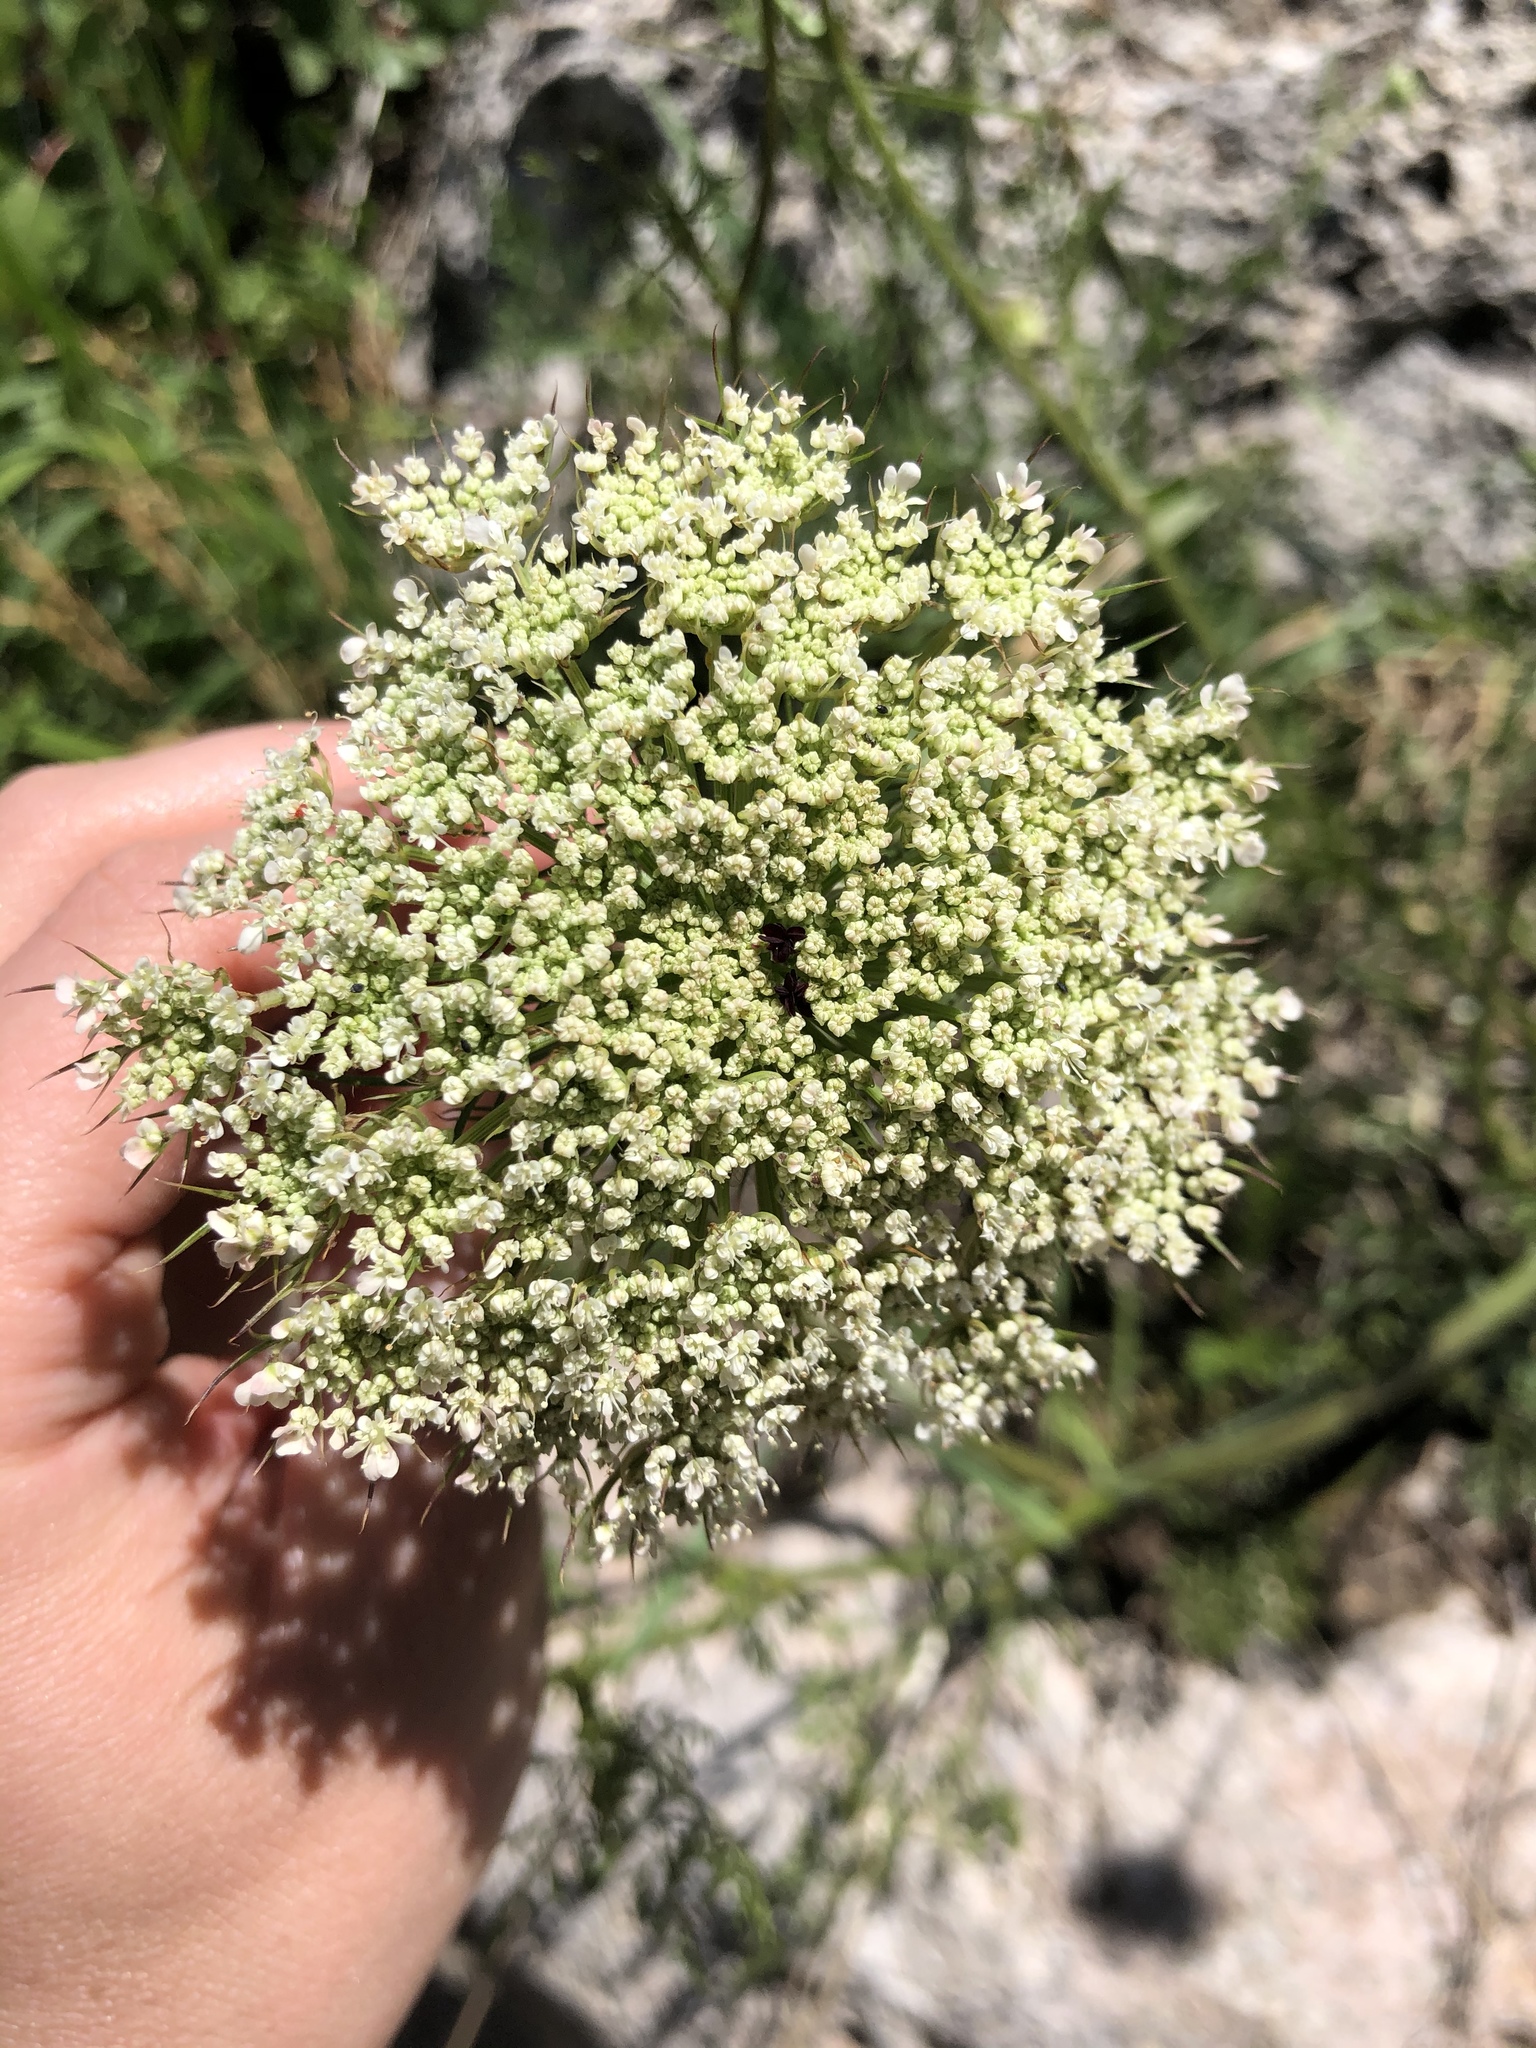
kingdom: Plantae
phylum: Tracheophyta
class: Magnoliopsida
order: Apiales
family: Apiaceae
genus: Daucus
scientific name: Daucus carota
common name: Wild carrot
